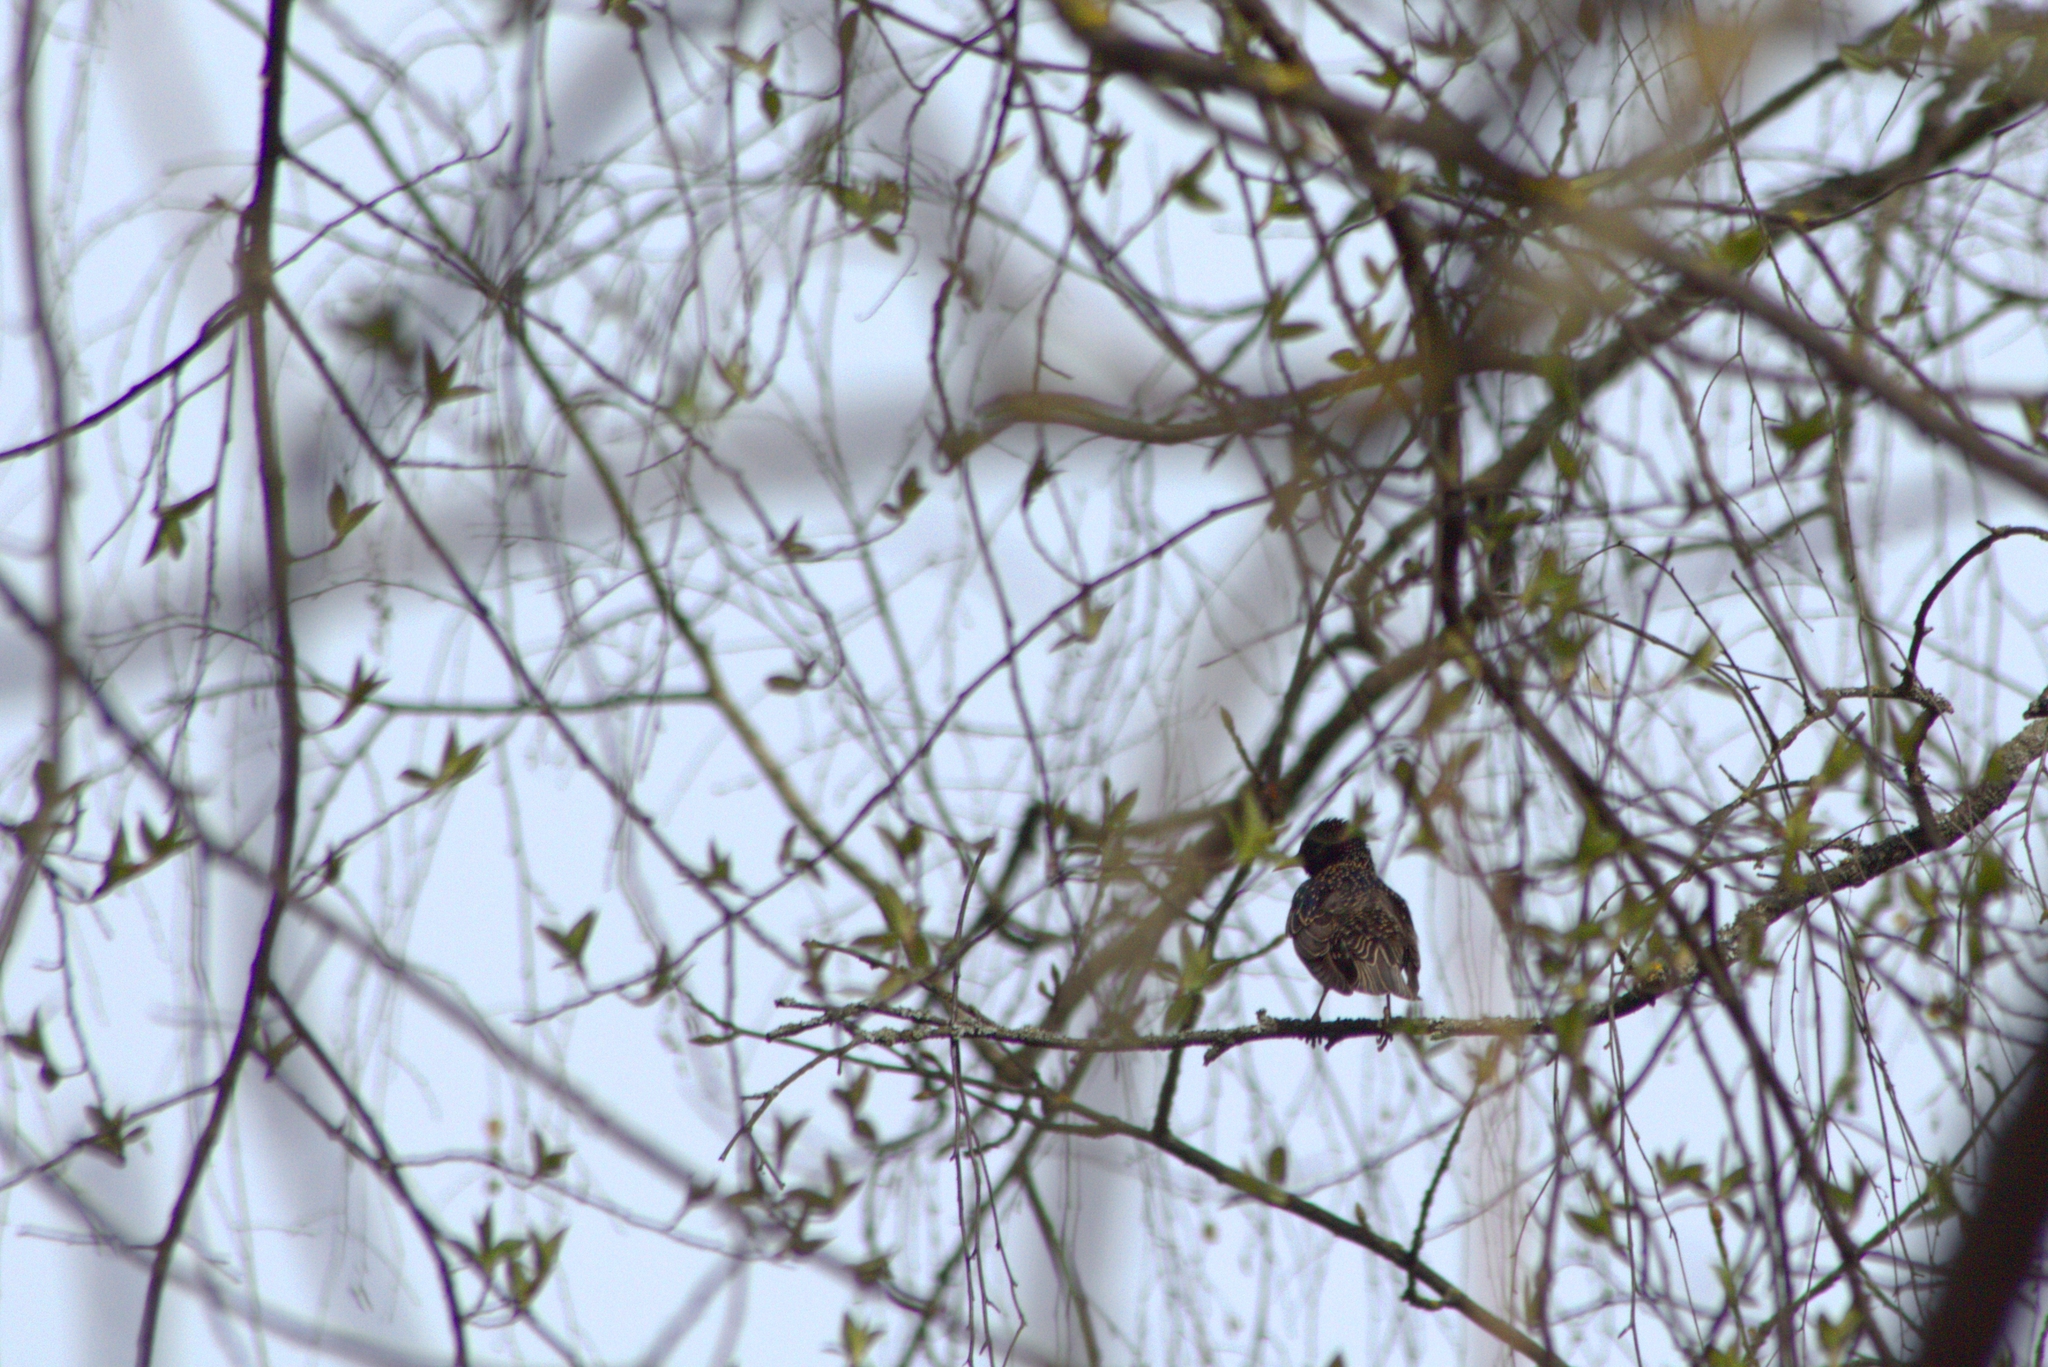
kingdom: Animalia
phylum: Chordata
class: Aves
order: Passeriformes
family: Sturnidae
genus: Sturnus
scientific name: Sturnus vulgaris
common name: Common starling
